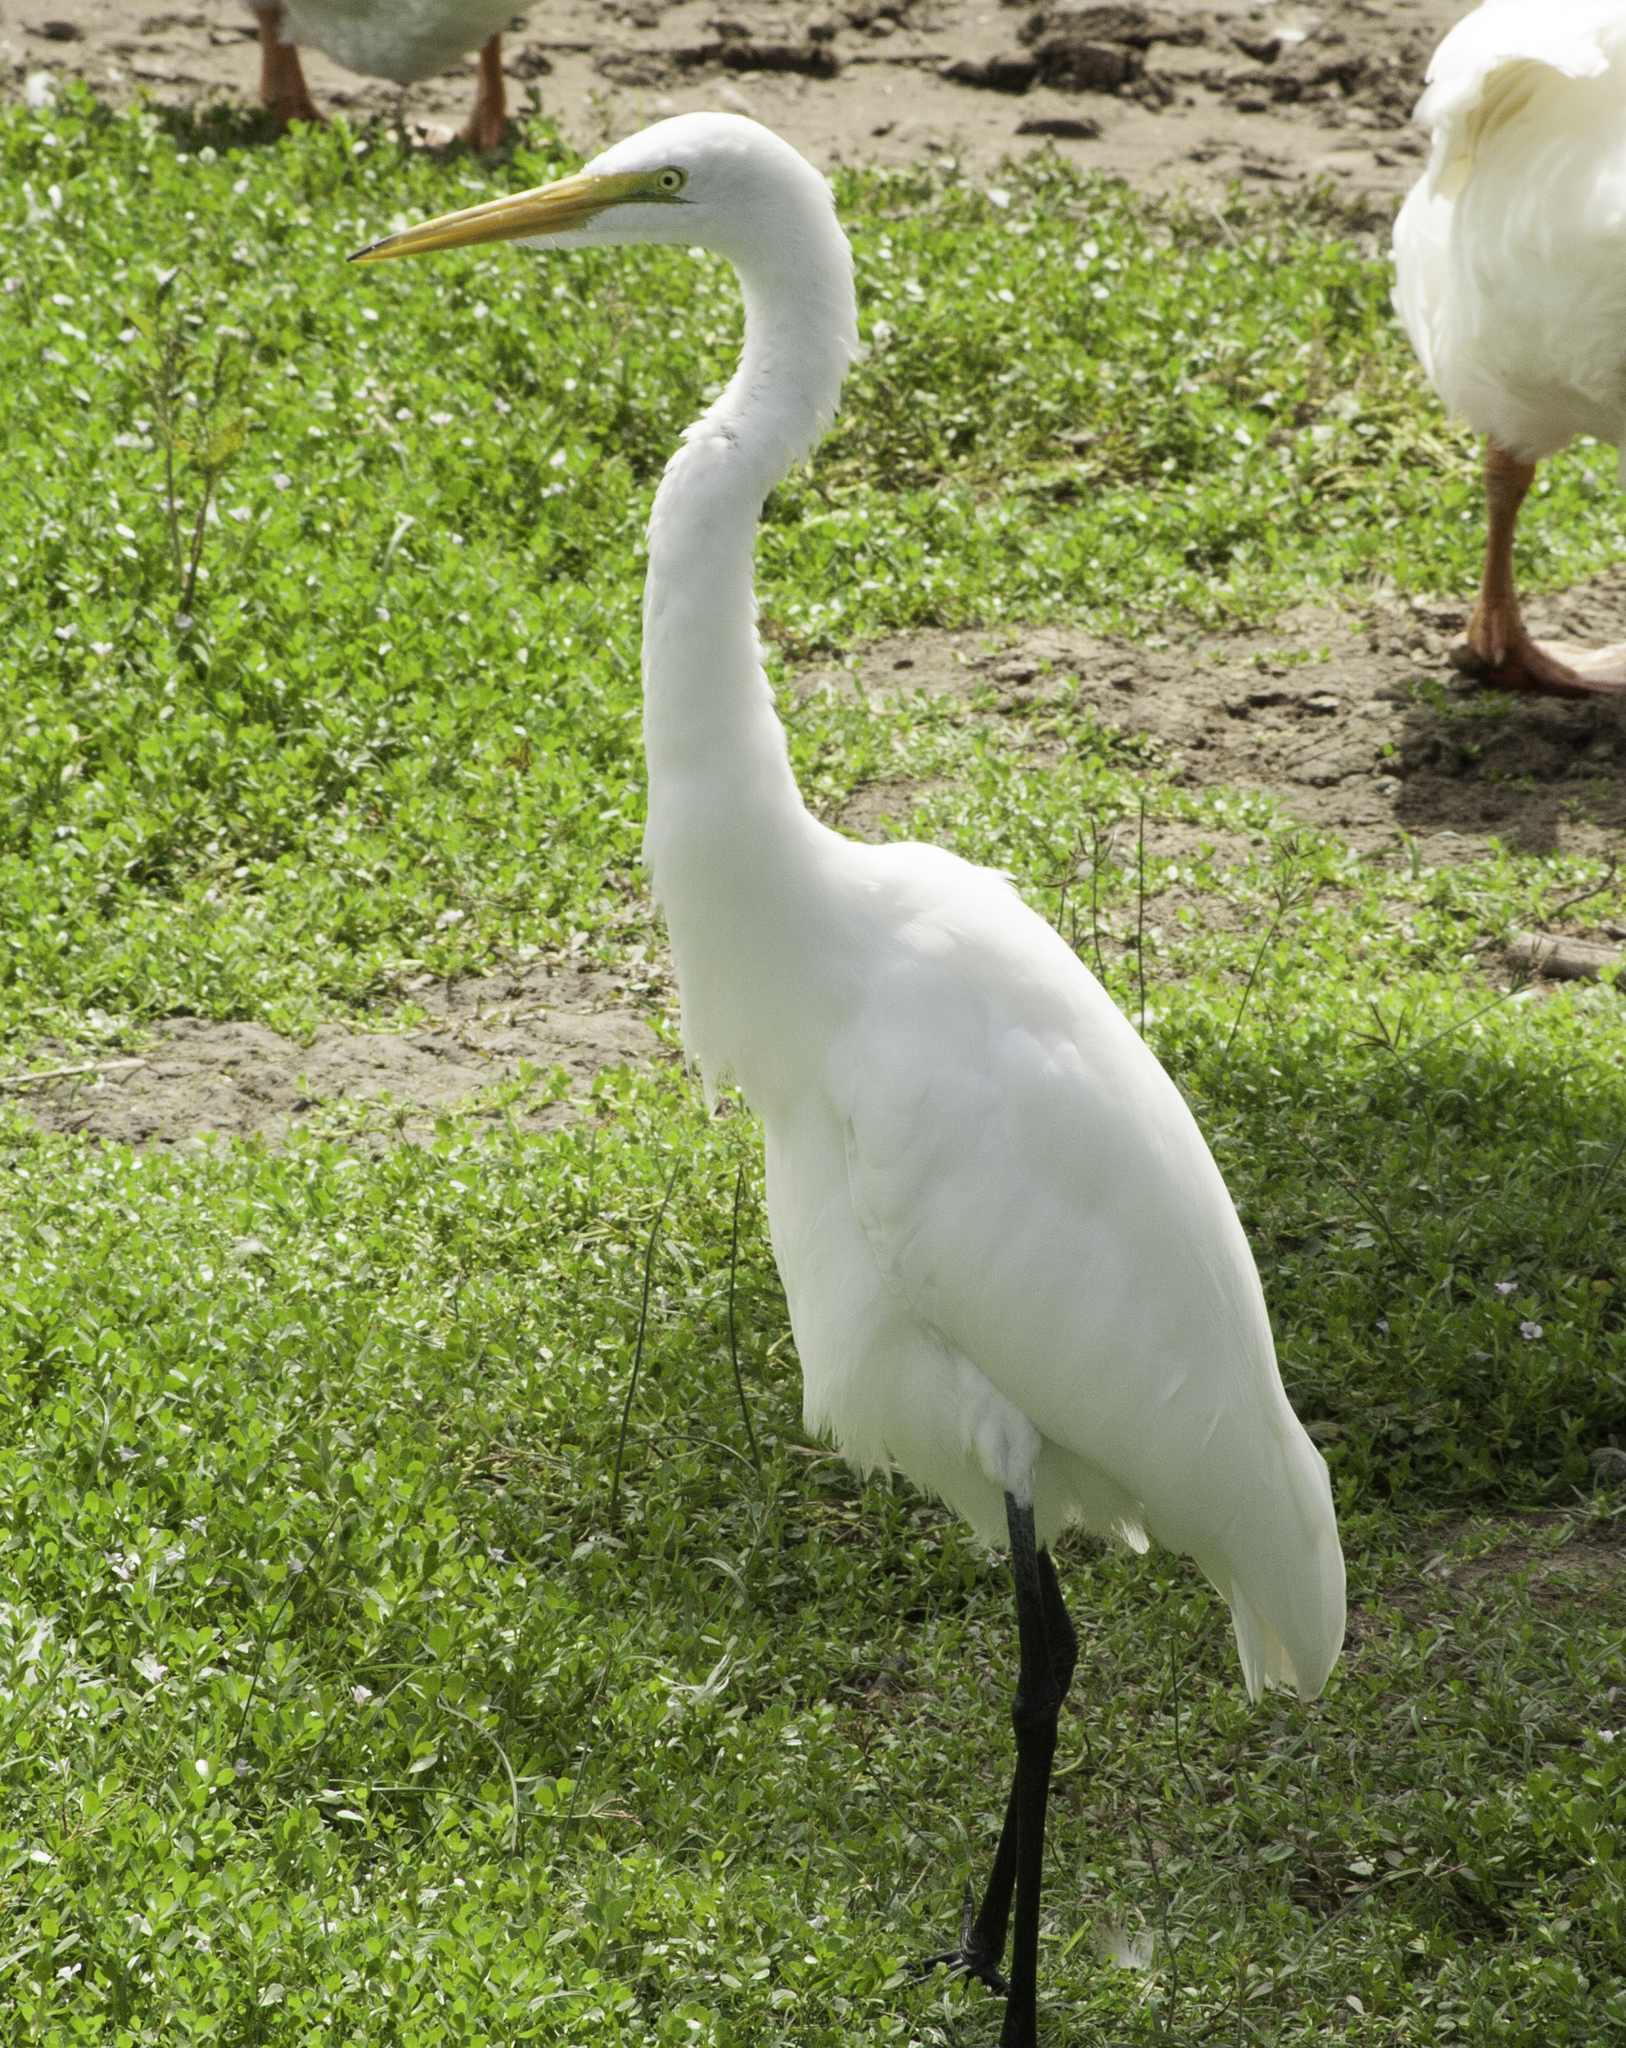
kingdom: Animalia
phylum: Chordata
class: Aves
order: Pelecaniformes
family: Ardeidae
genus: Ardea
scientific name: Ardea alba
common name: Great egret
